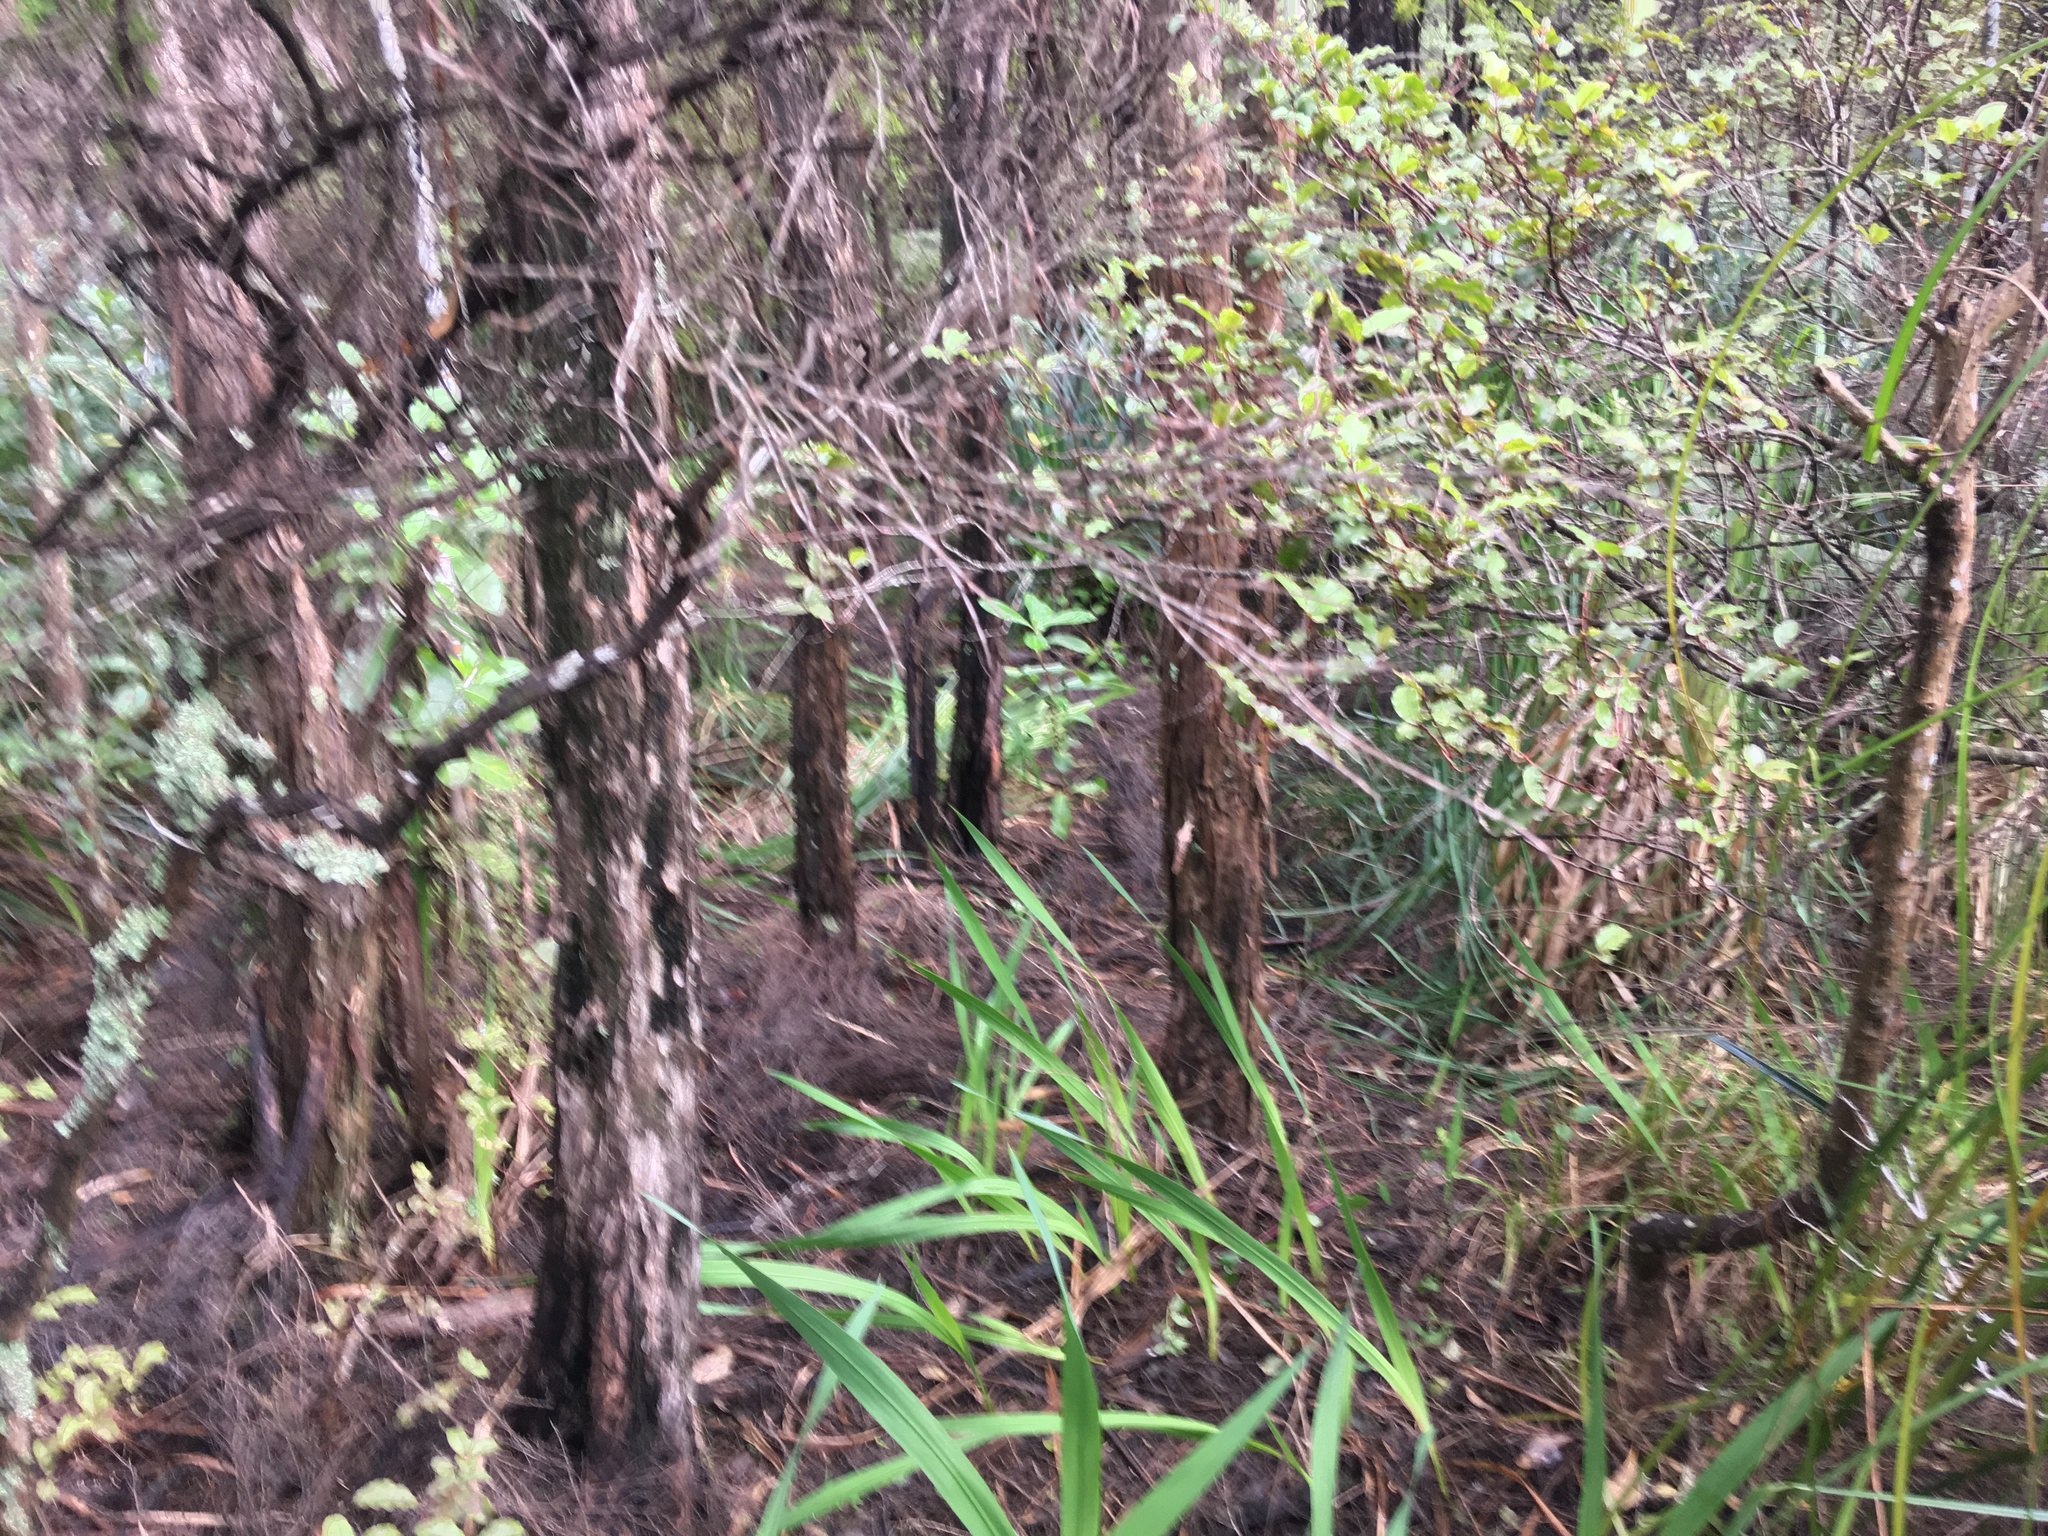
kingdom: Plantae
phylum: Tracheophyta
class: Liliopsida
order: Asparagales
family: Iridaceae
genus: Watsonia
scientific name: Watsonia meriana
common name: Bulbil bugle-lily
